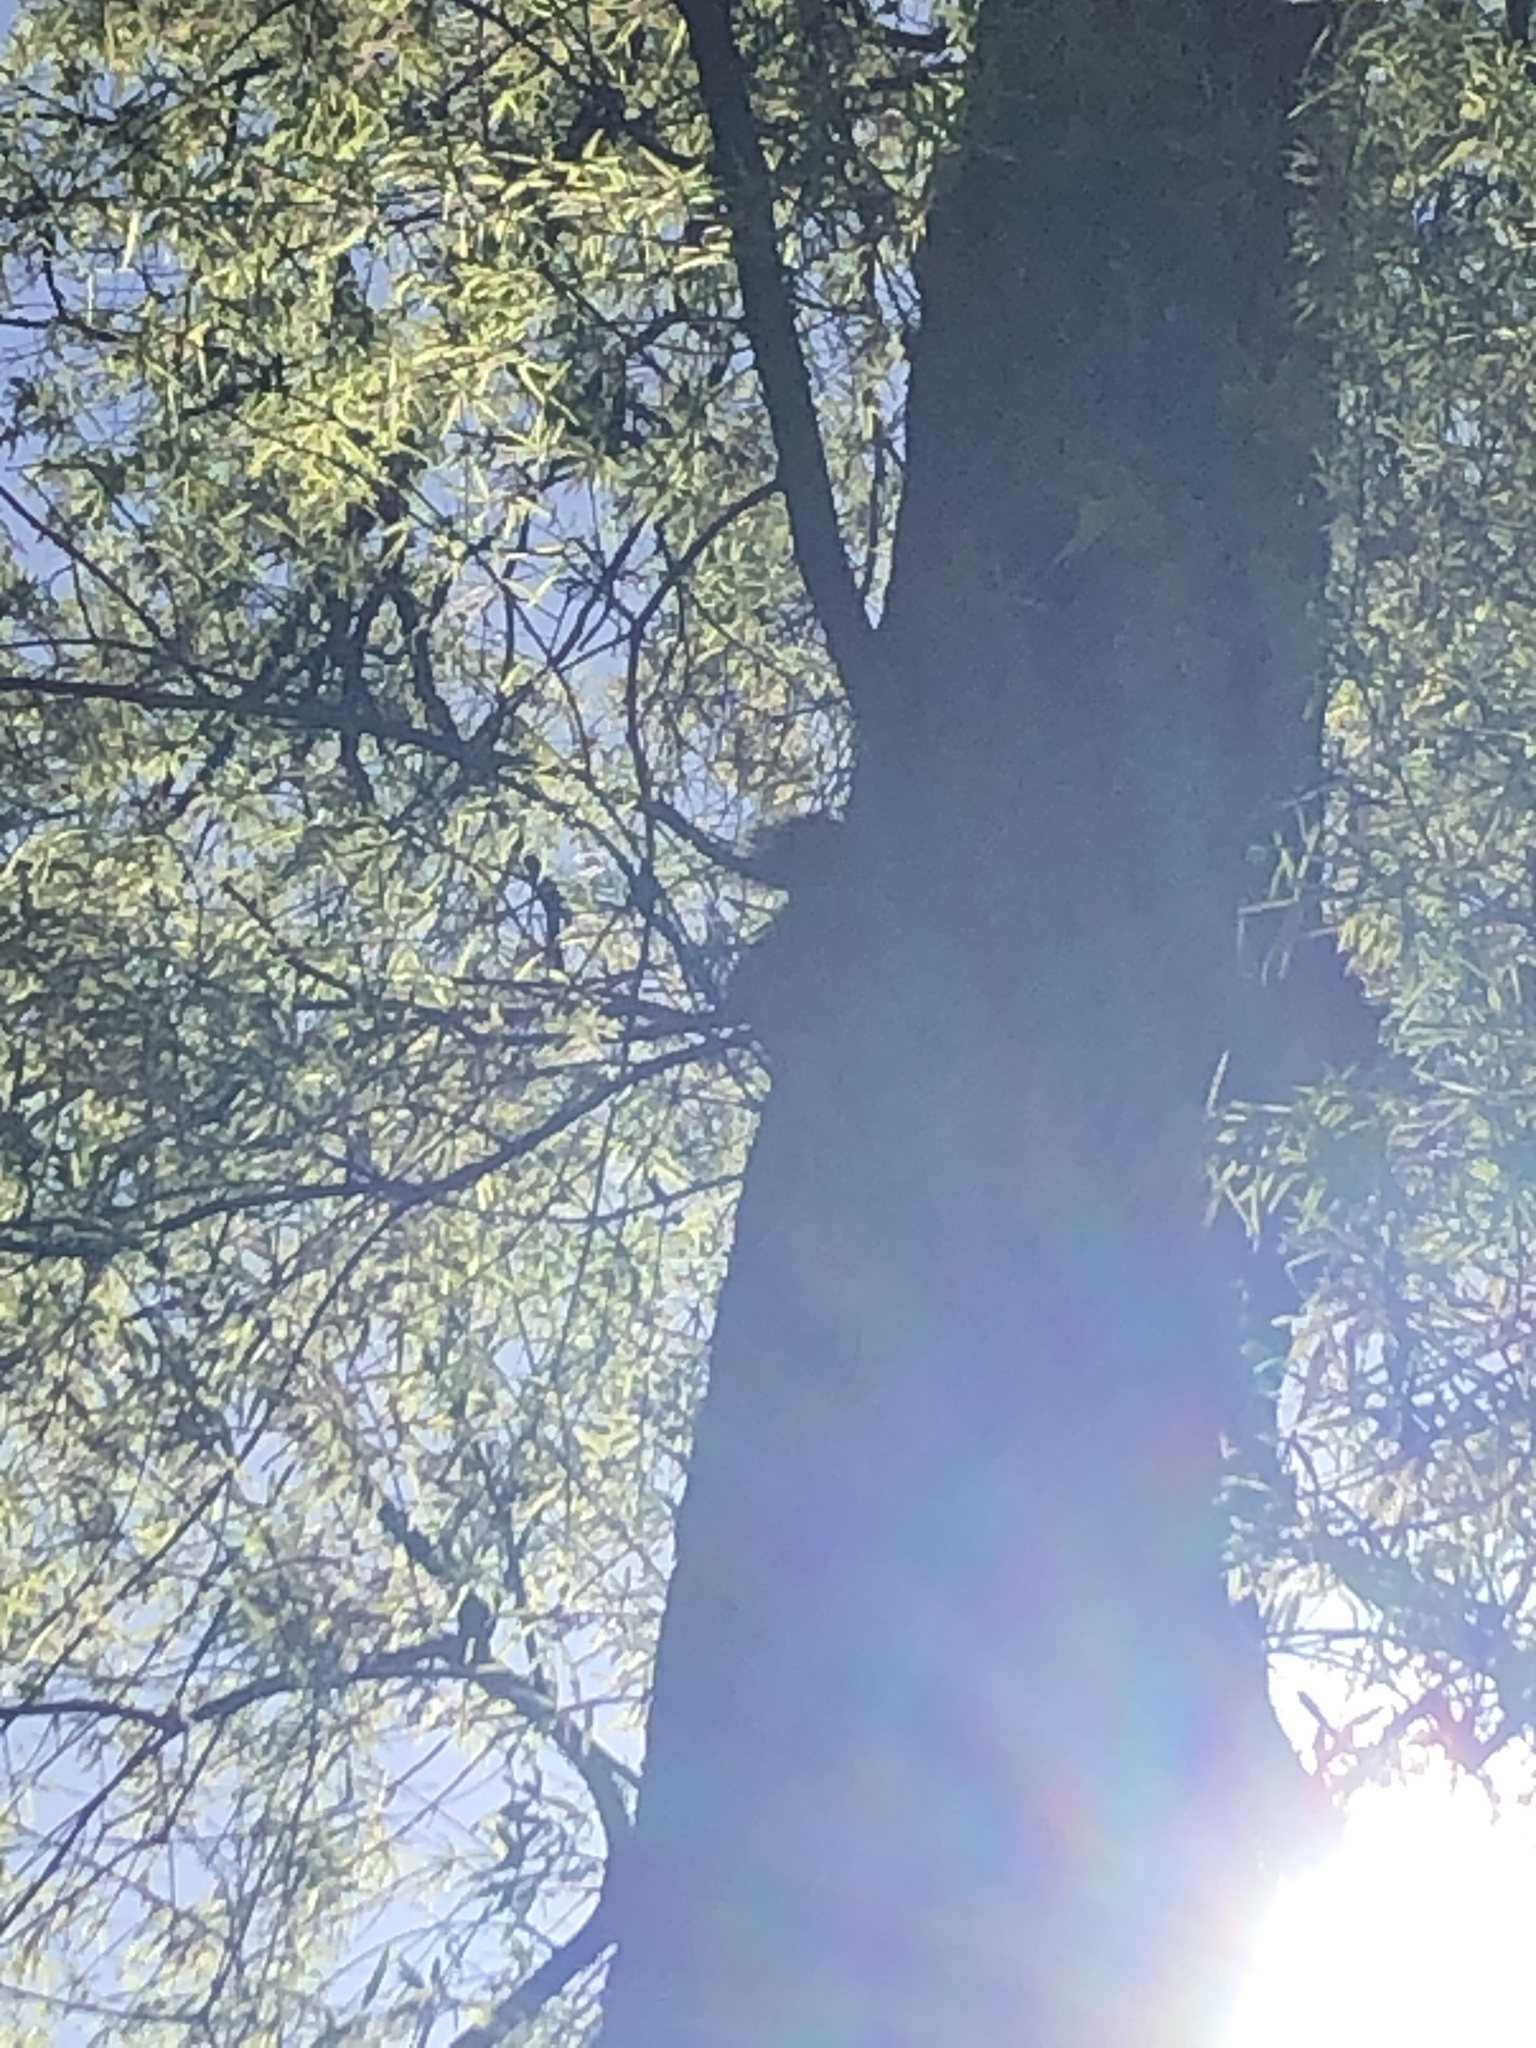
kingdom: Animalia
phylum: Chordata
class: Mammalia
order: Rodentia
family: Sciuridae
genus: Sciurus
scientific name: Sciurus carolinensis
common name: Eastern gray squirrel
